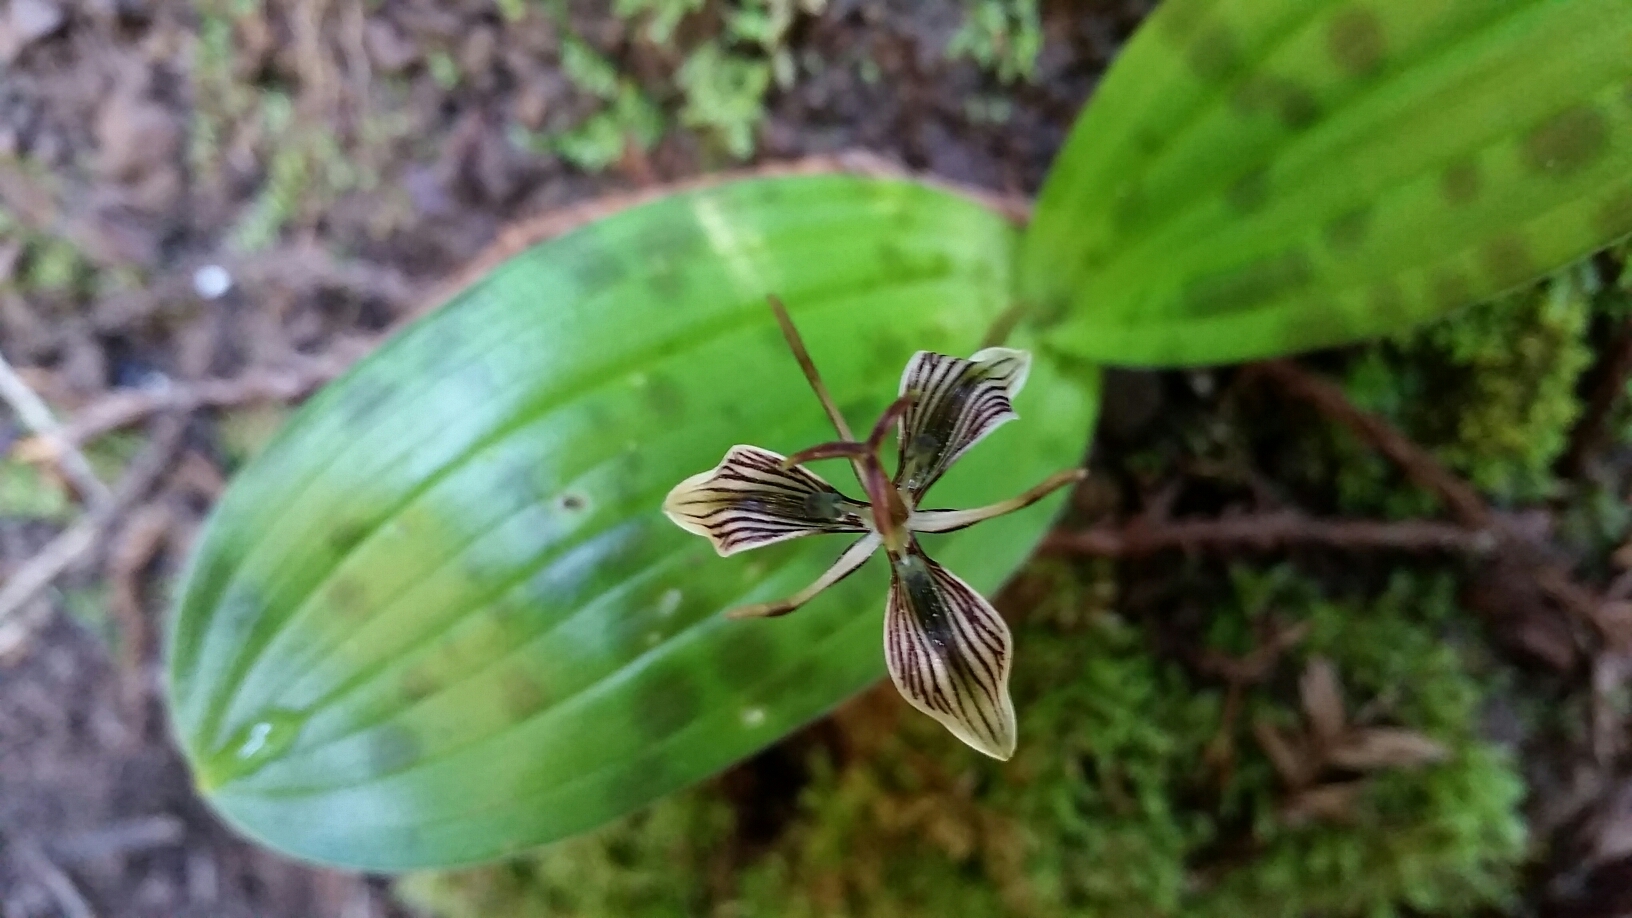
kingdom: Plantae
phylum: Tracheophyta
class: Liliopsida
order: Liliales
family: Liliaceae
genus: Scoliopus
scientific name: Scoliopus bigelovii
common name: Foetid adder's-tongue
